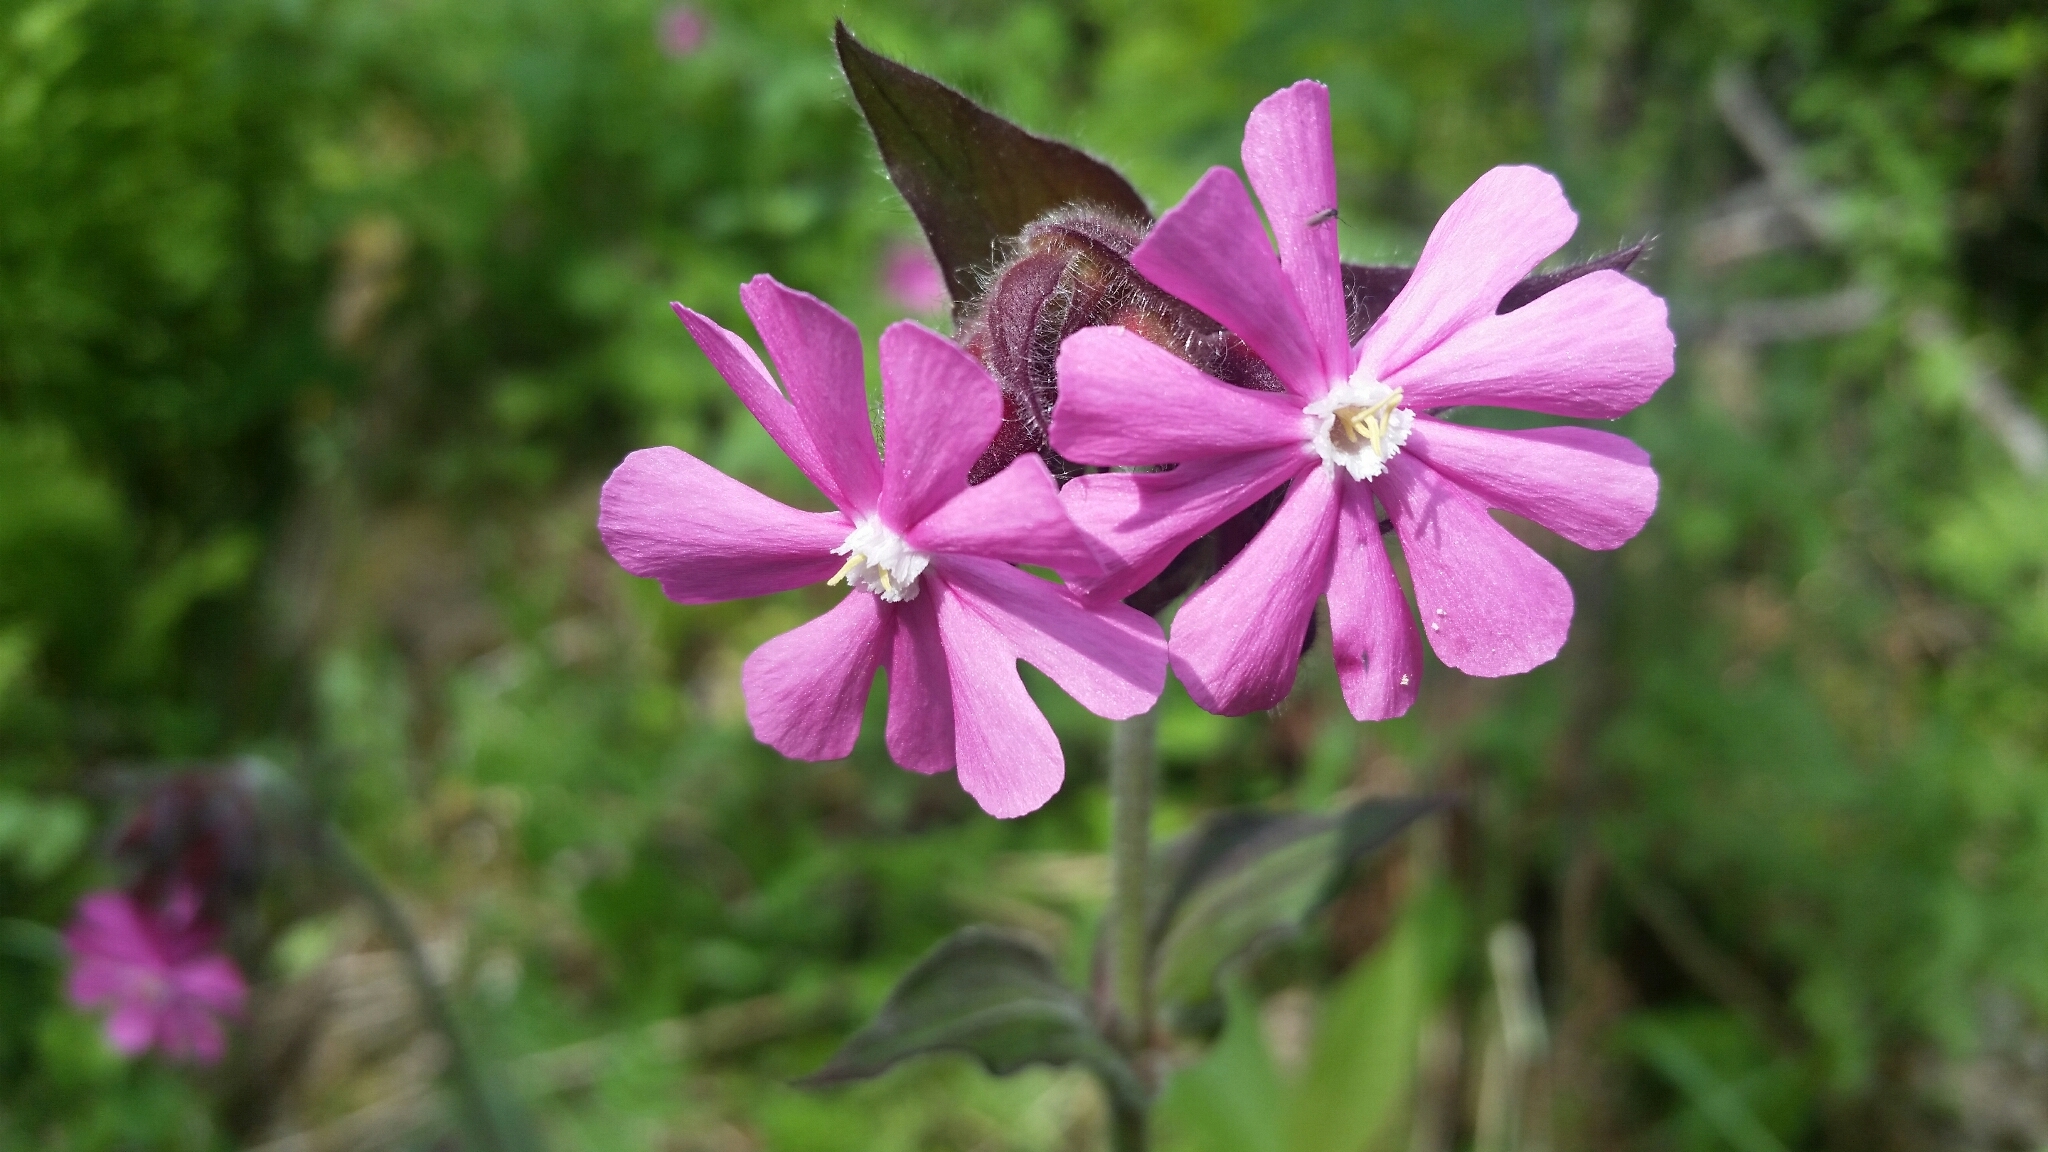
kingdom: Plantae
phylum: Tracheophyta
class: Magnoliopsida
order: Caryophyllales
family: Caryophyllaceae
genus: Silene
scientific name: Silene dioica
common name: Red campion
